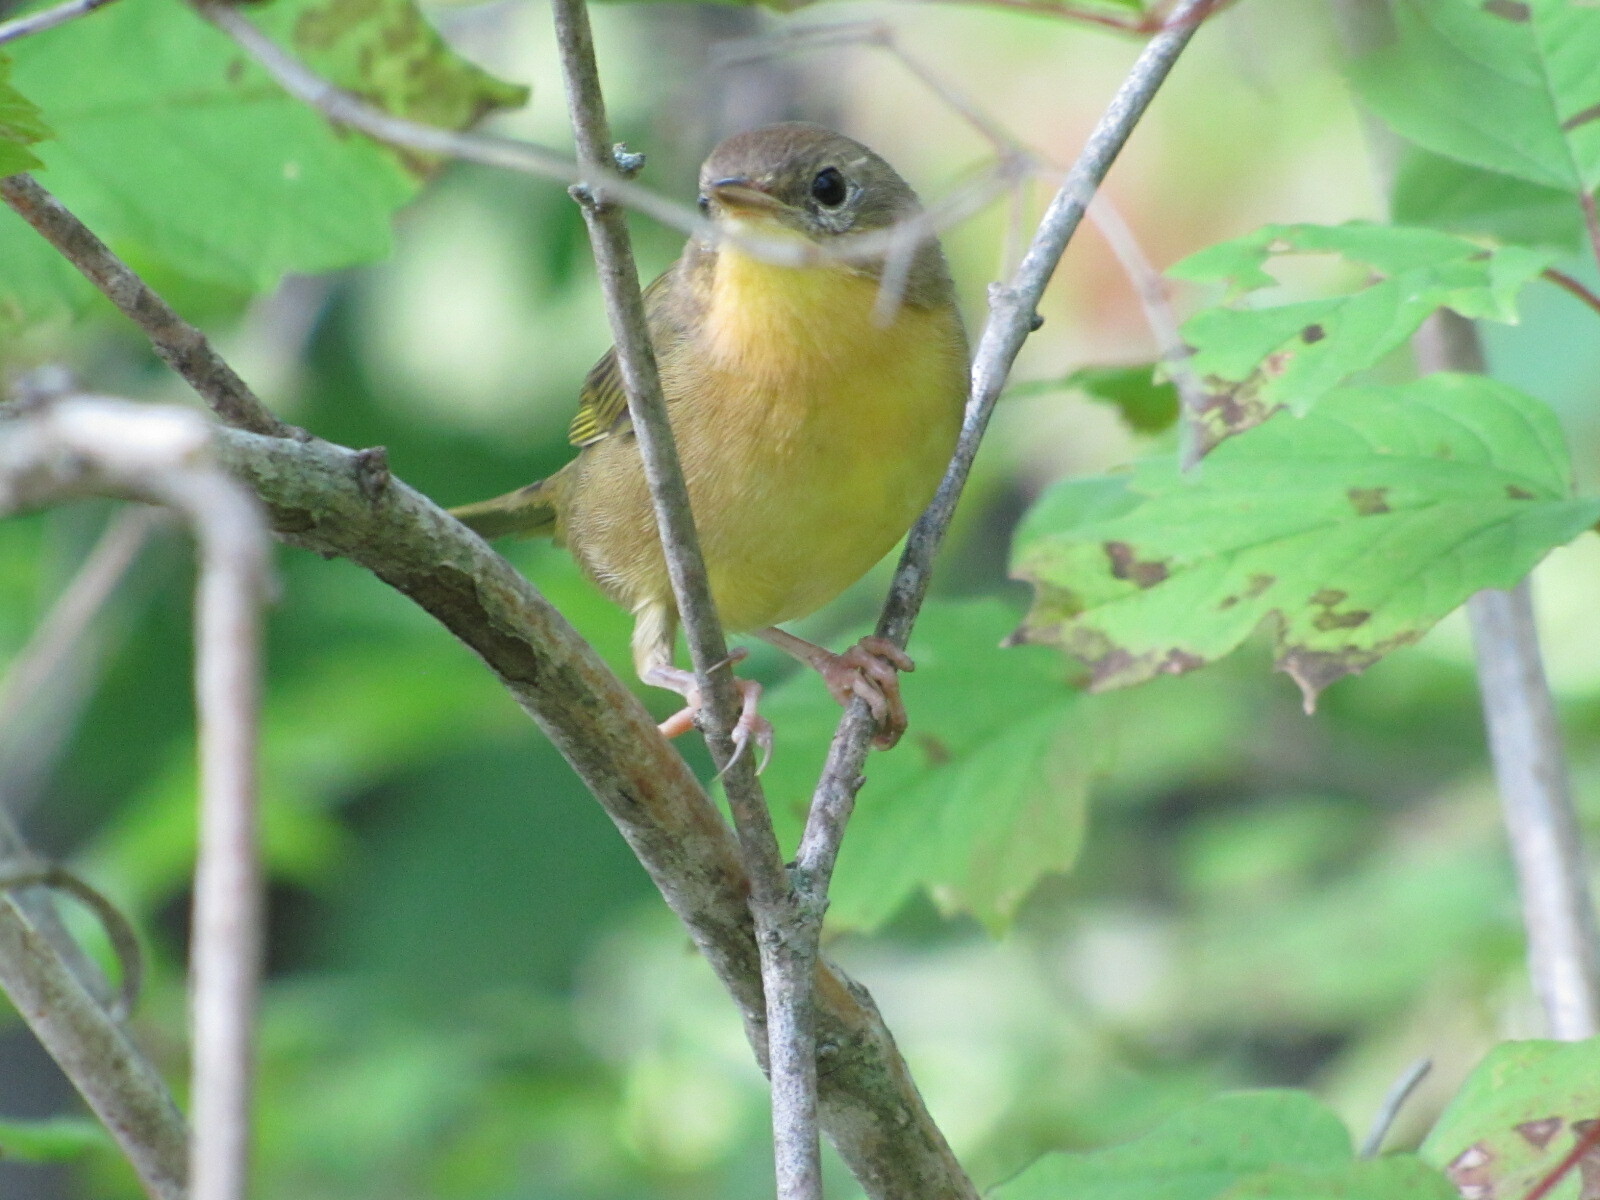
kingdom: Animalia
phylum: Chordata
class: Aves
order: Passeriformes
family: Parulidae
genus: Geothlypis
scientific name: Geothlypis trichas
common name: Common yellowthroat
